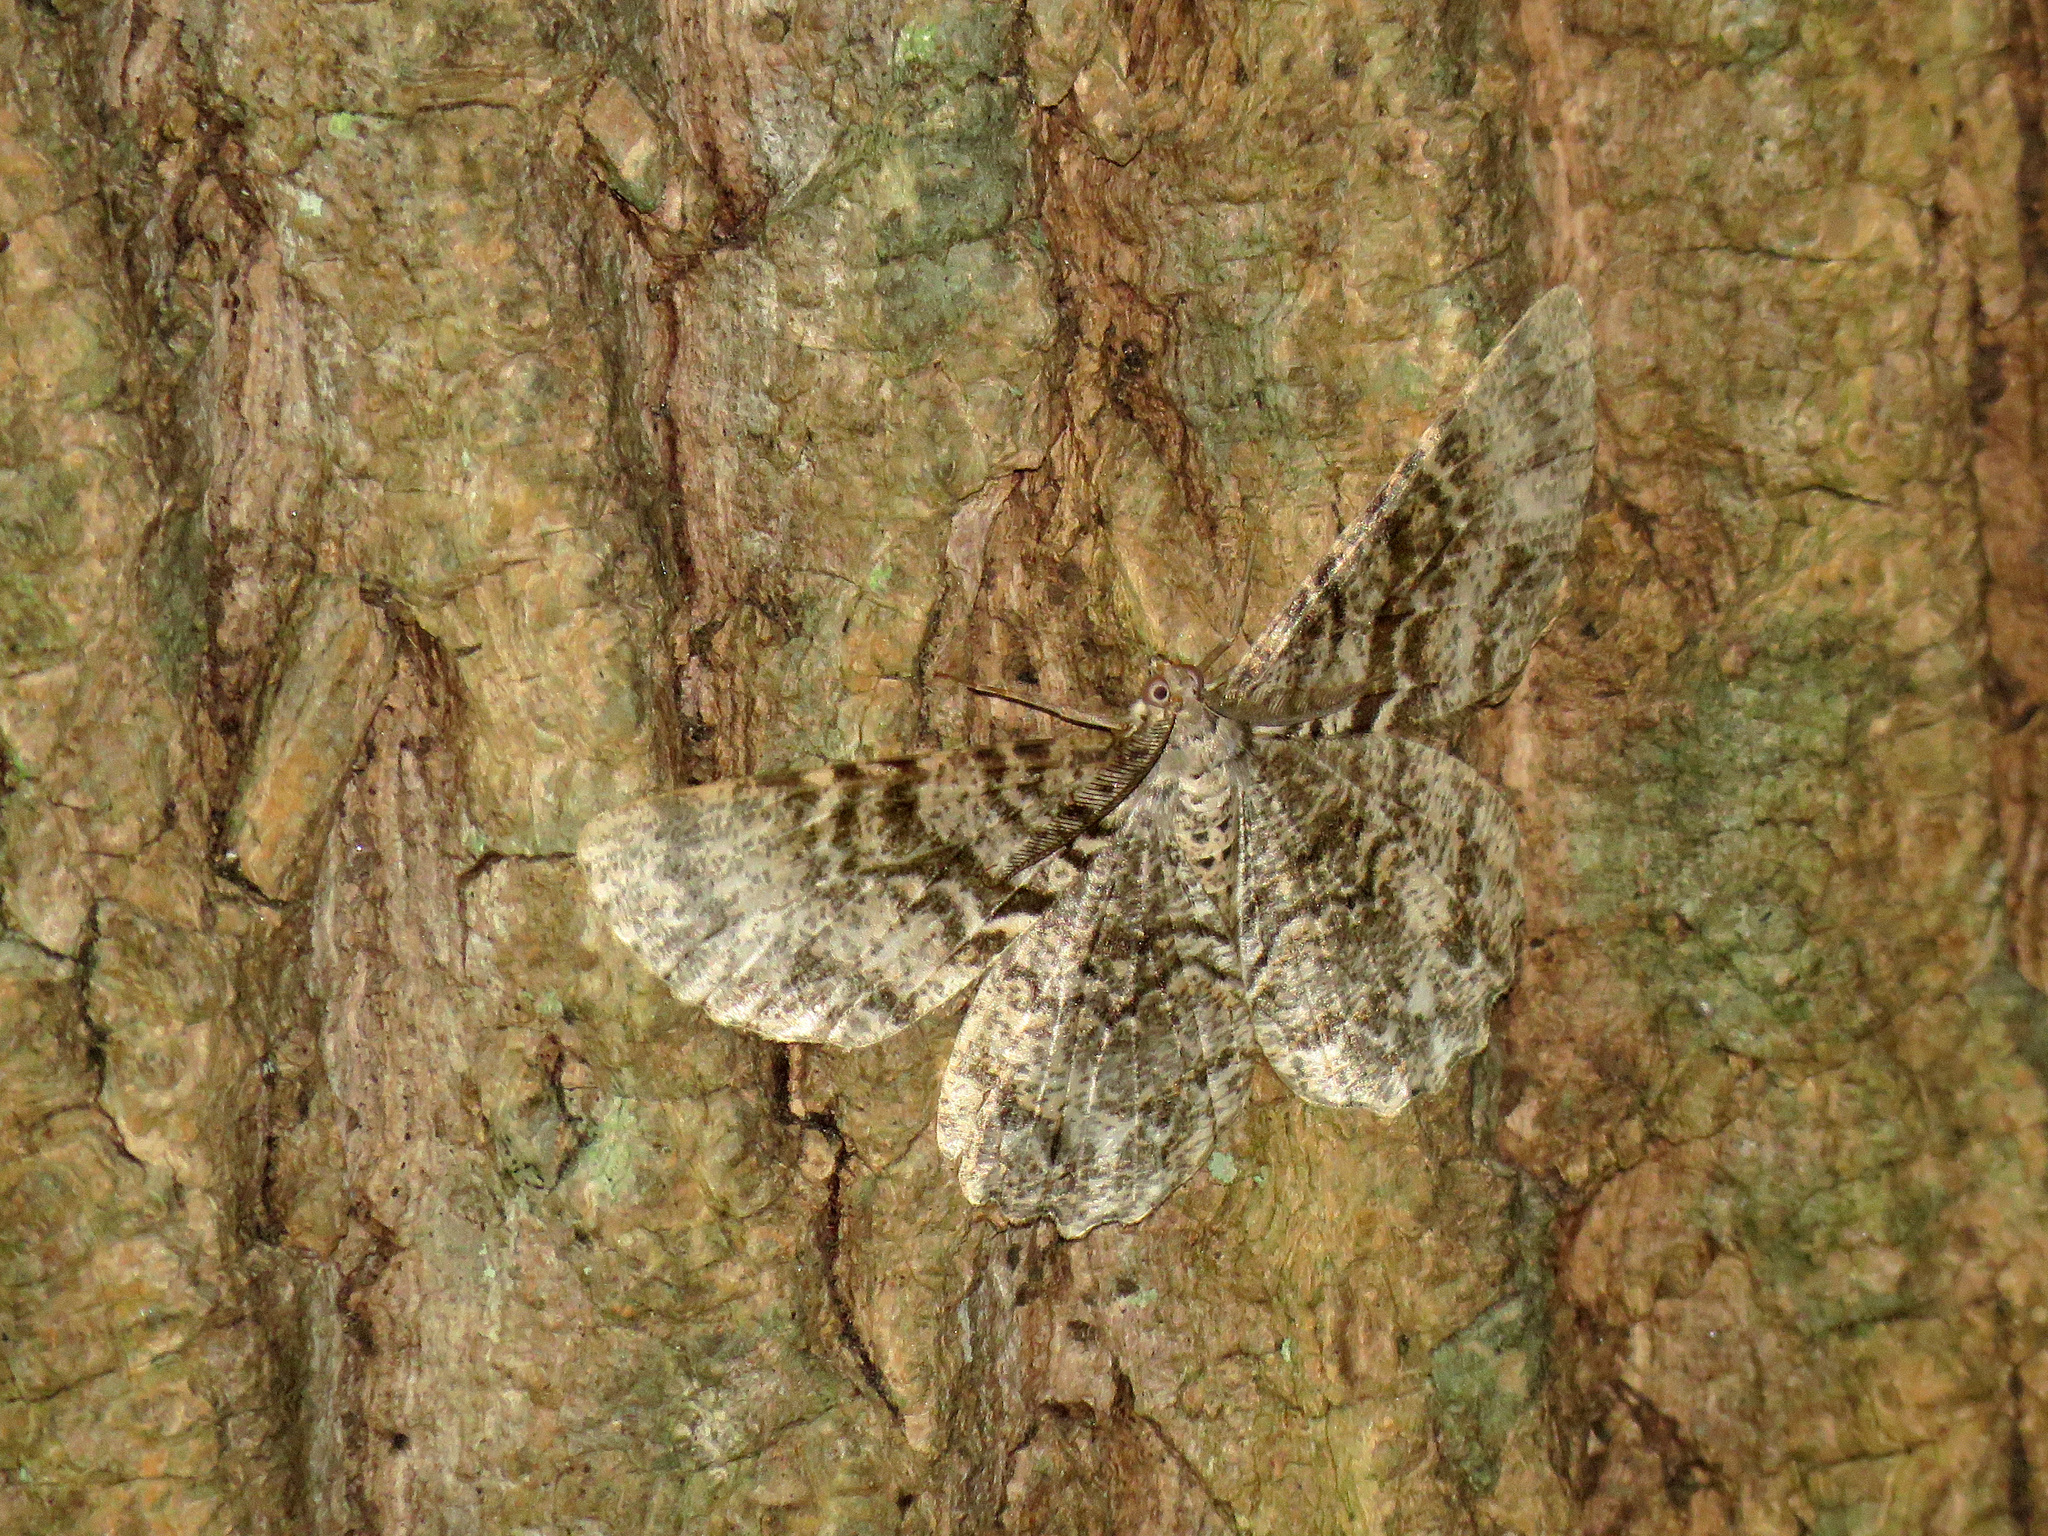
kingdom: Animalia
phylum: Arthropoda
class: Insecta
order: Lepidoptera
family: Geometridae
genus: Epimecis
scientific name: Epimecis hortaria
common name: Tulip-tree beauty
